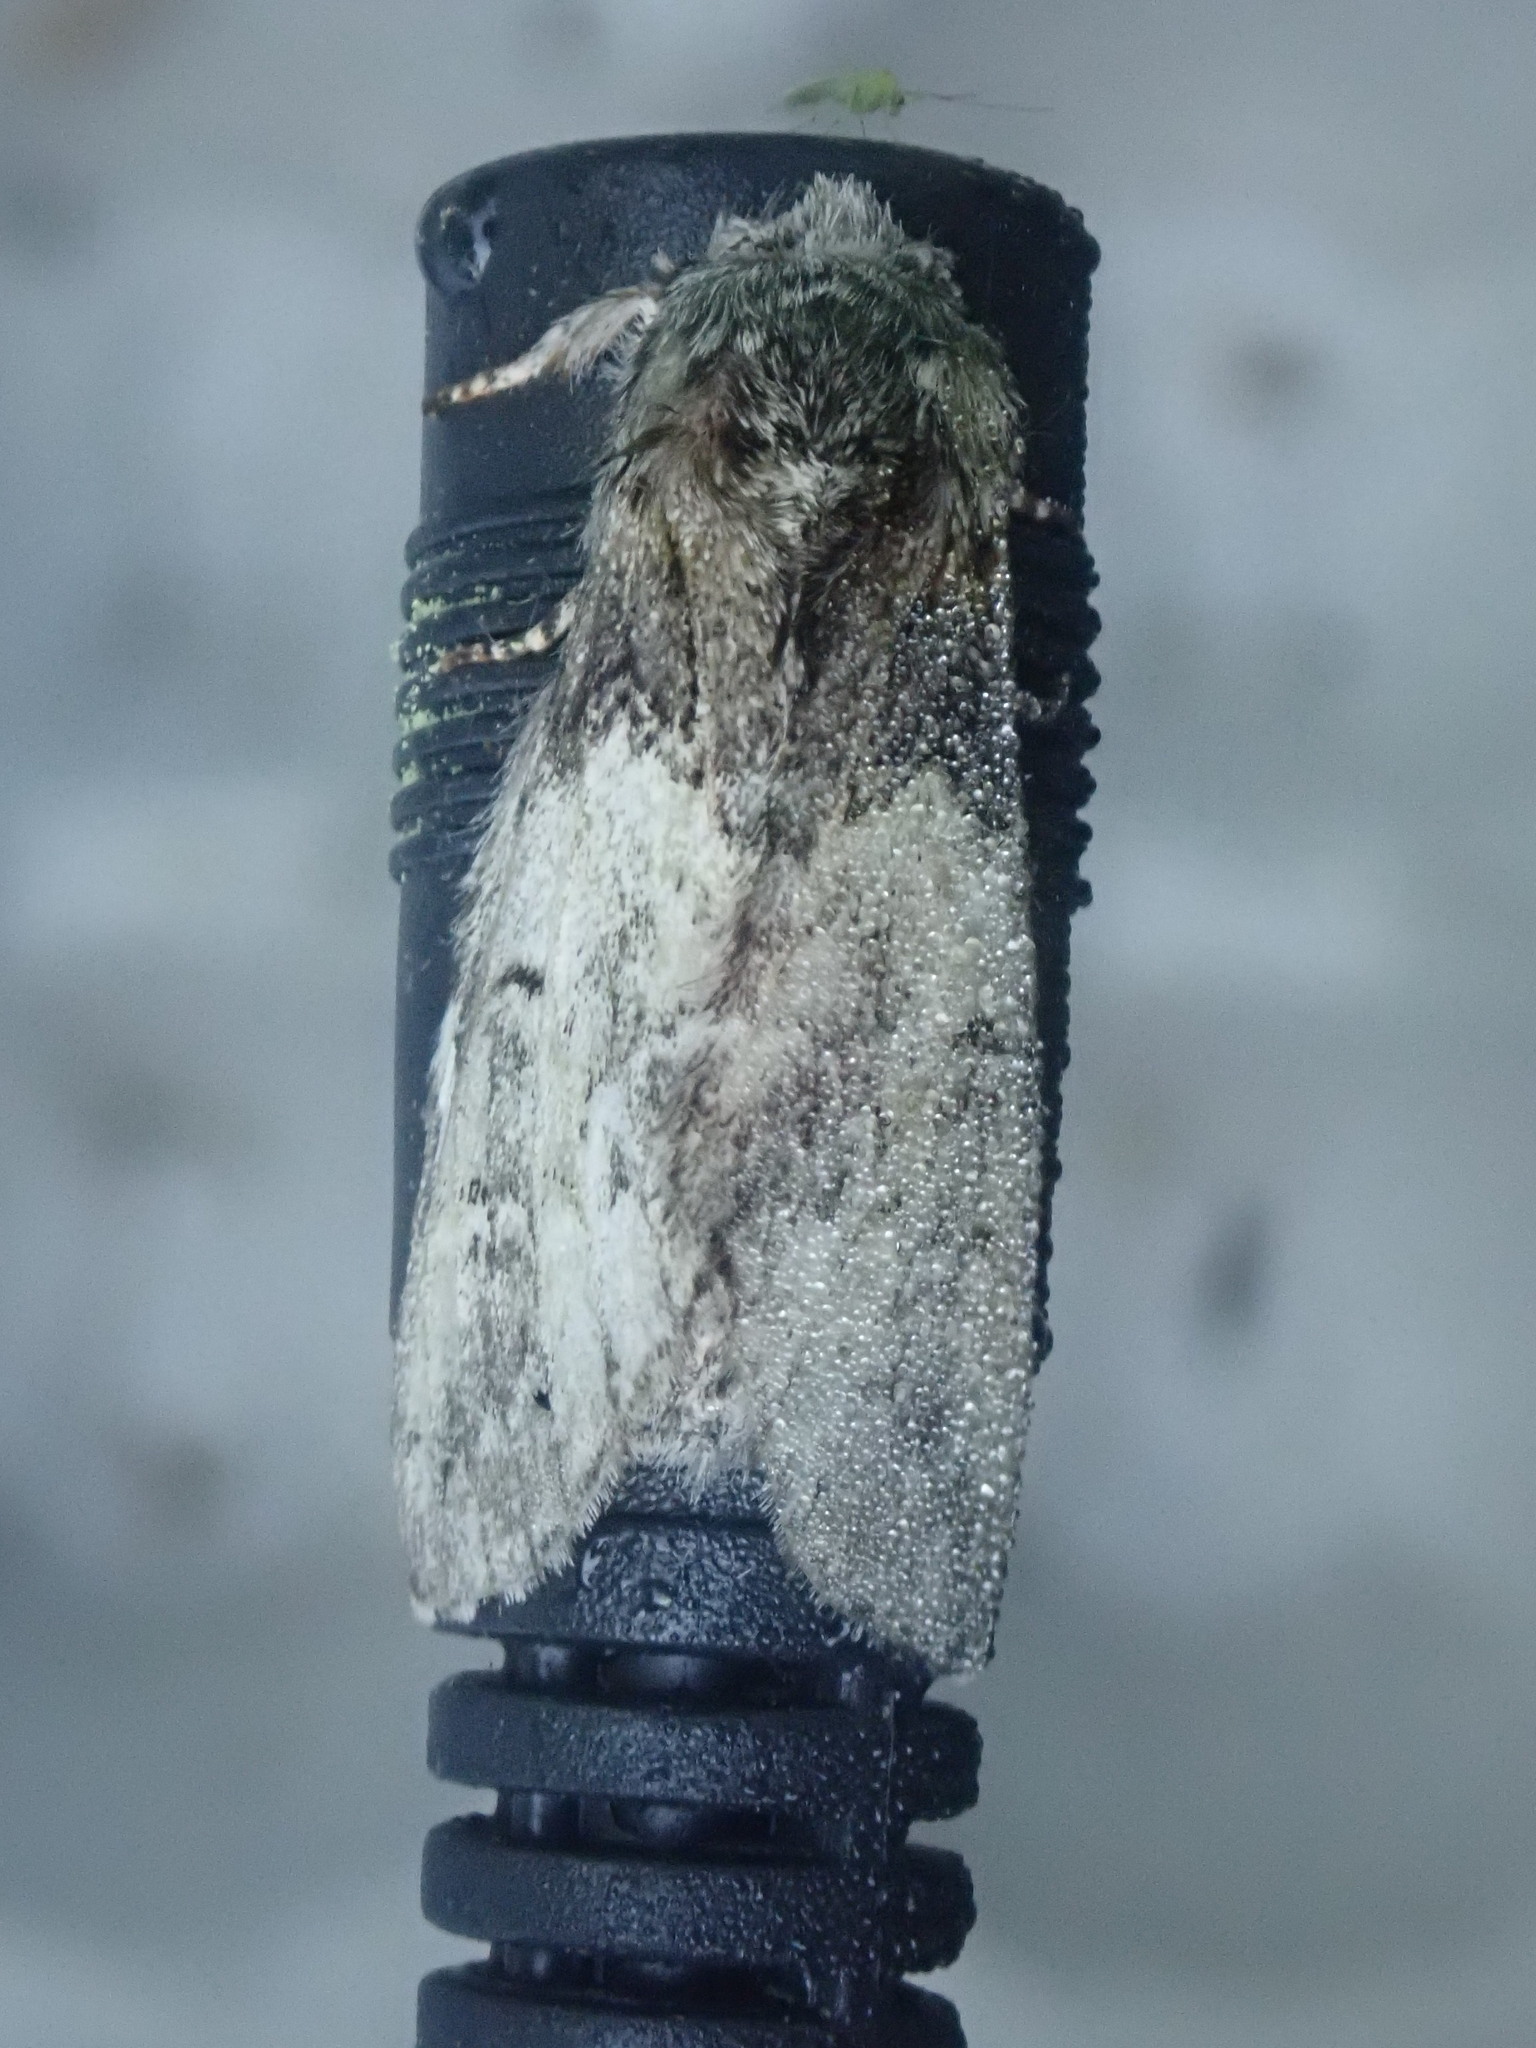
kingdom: Animalia
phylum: Arthropoda
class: Insecta
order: Lepidoptera
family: Notodontidae
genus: Macrurocampa
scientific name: Macrurocampa marthesia
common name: Mottled prominent
